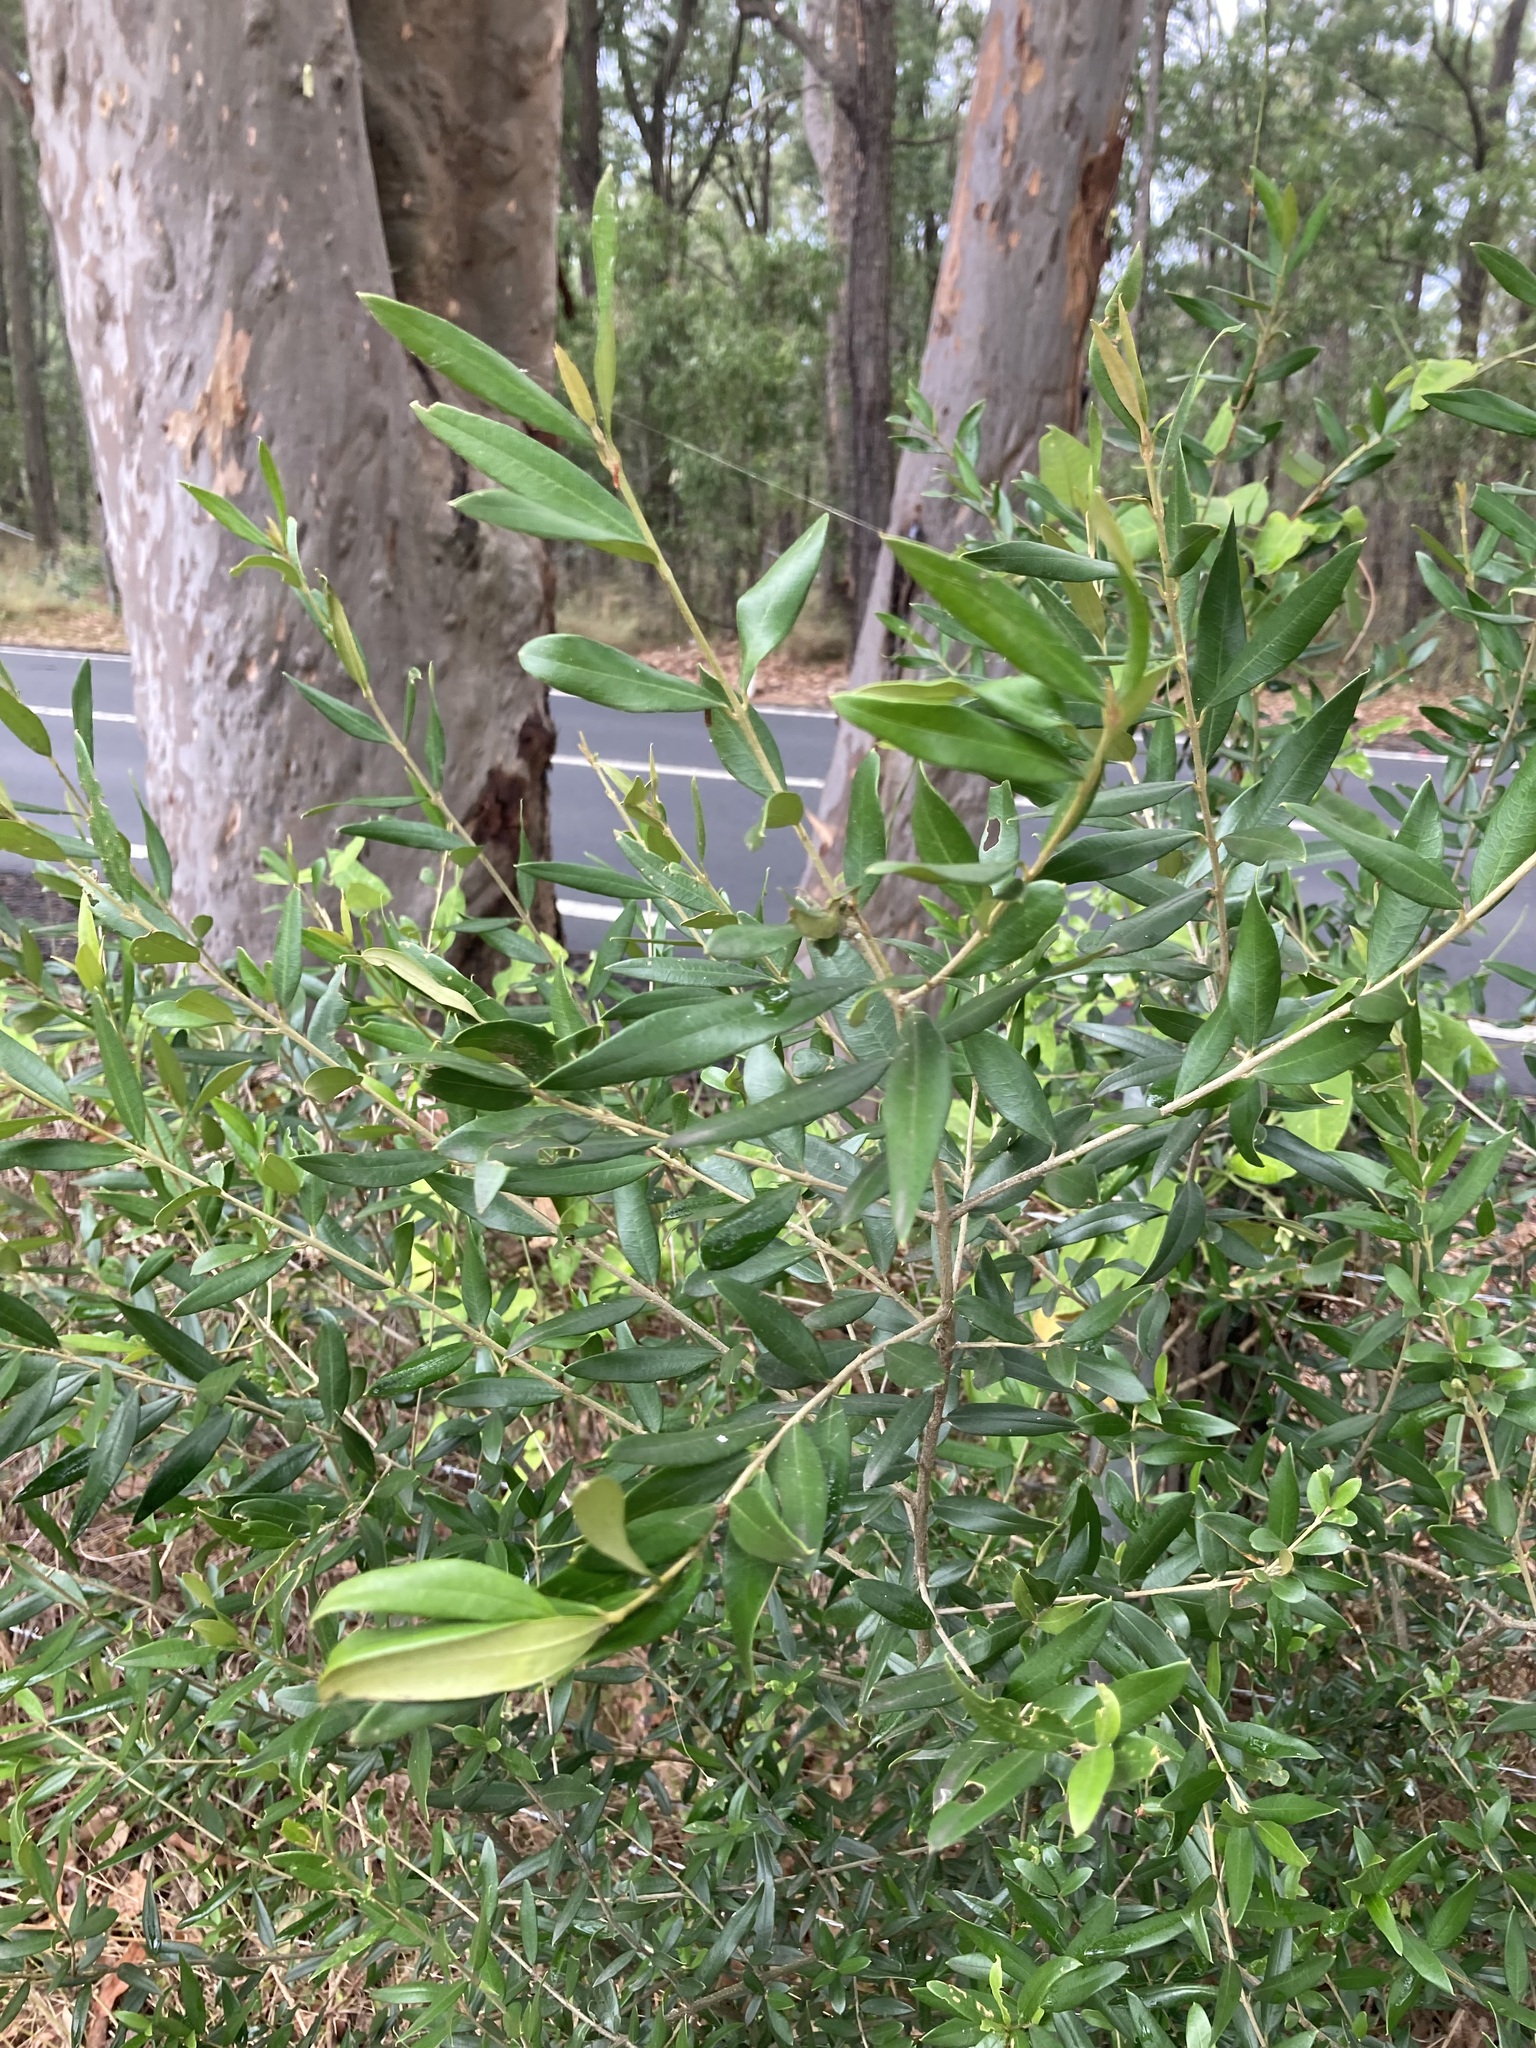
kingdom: Plantae
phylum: Tracheophyta
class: Magnoliopsida
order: Lamiales
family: Oleaceae
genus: Olea
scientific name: Olea europaea
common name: Olive
